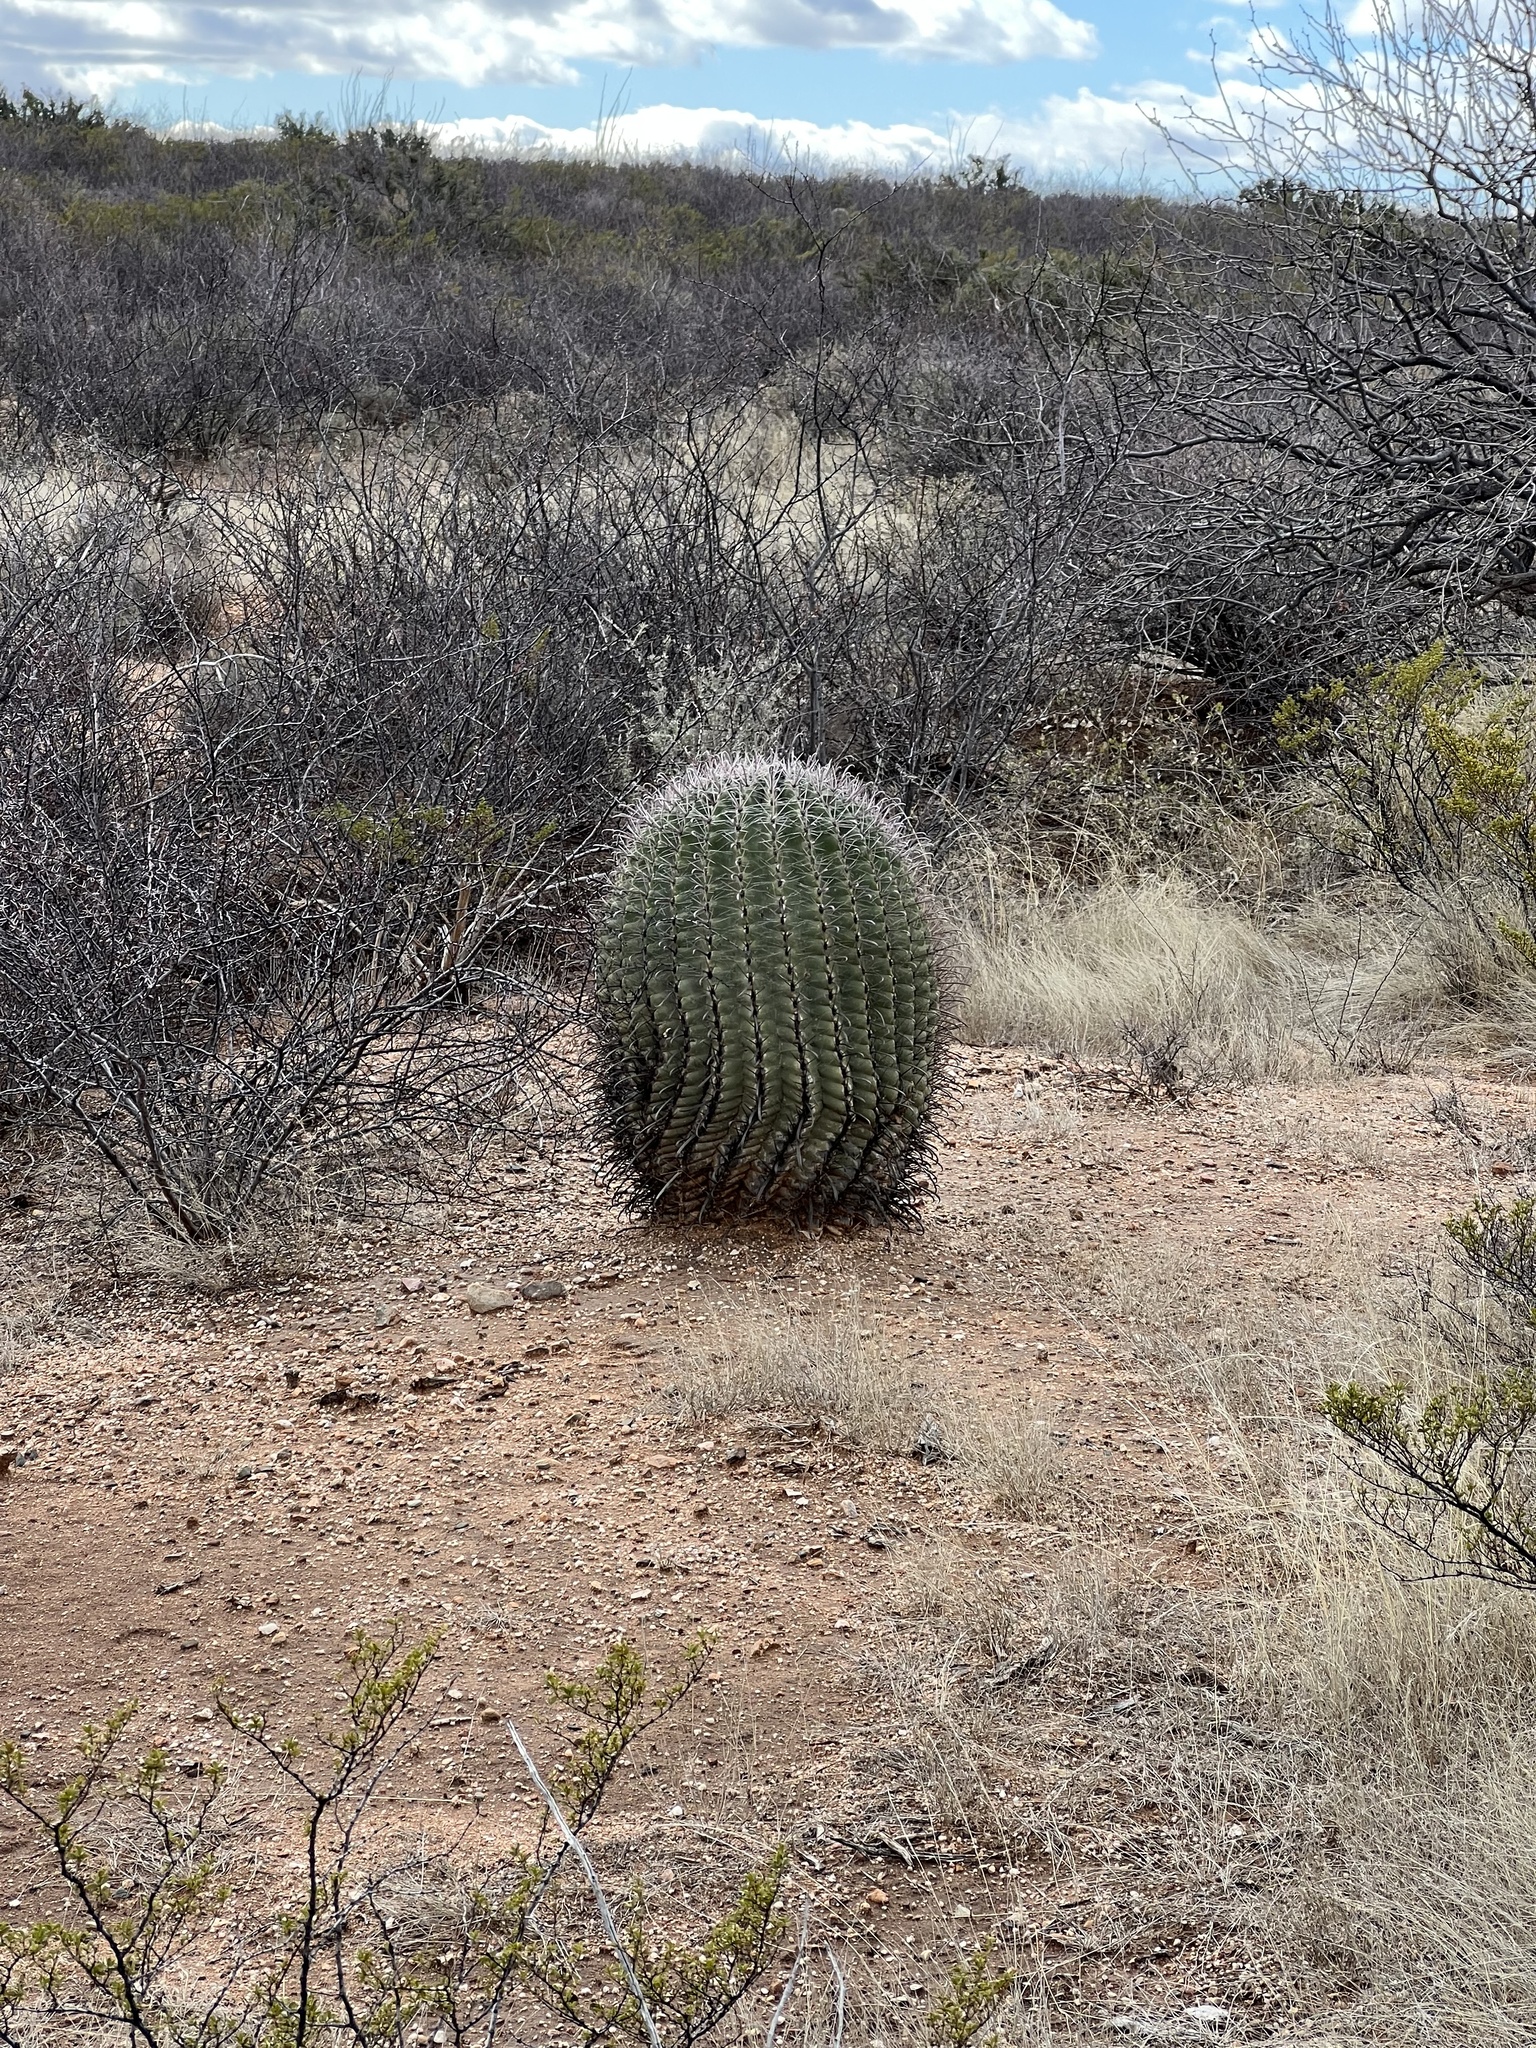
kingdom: Plantae
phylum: Tracheophyta
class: Magnoliopsida
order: Caryophyllales
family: Cactaceae
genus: Ferocactus
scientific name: Ferocactus wislizeni
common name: Candy barrel cactus
